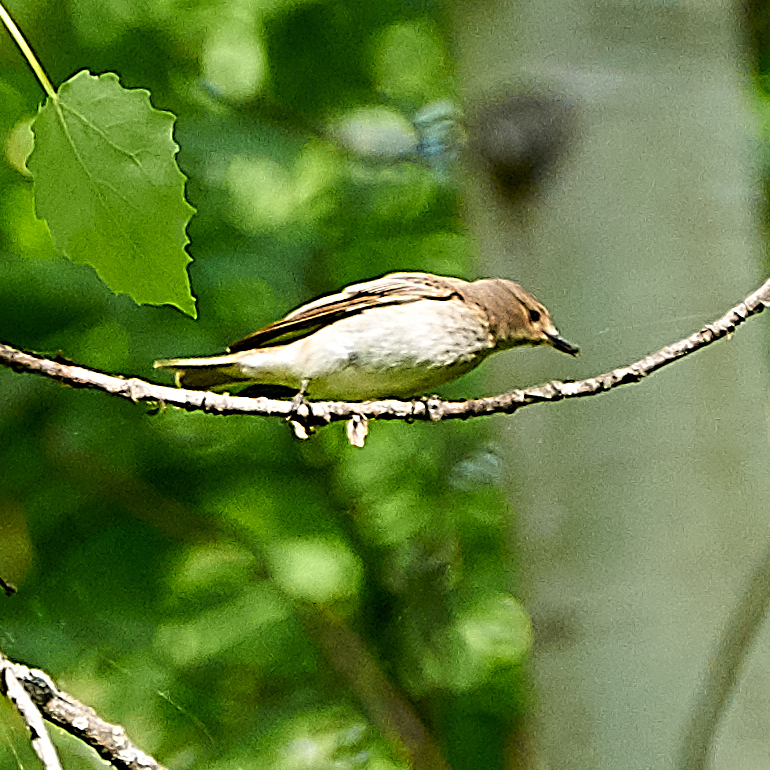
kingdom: Animalia
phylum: Chordata
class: Aves
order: Passeriformes
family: Muscicapidae
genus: Muscicapa
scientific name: Muscicapa striata
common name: Spotted flycatcher
